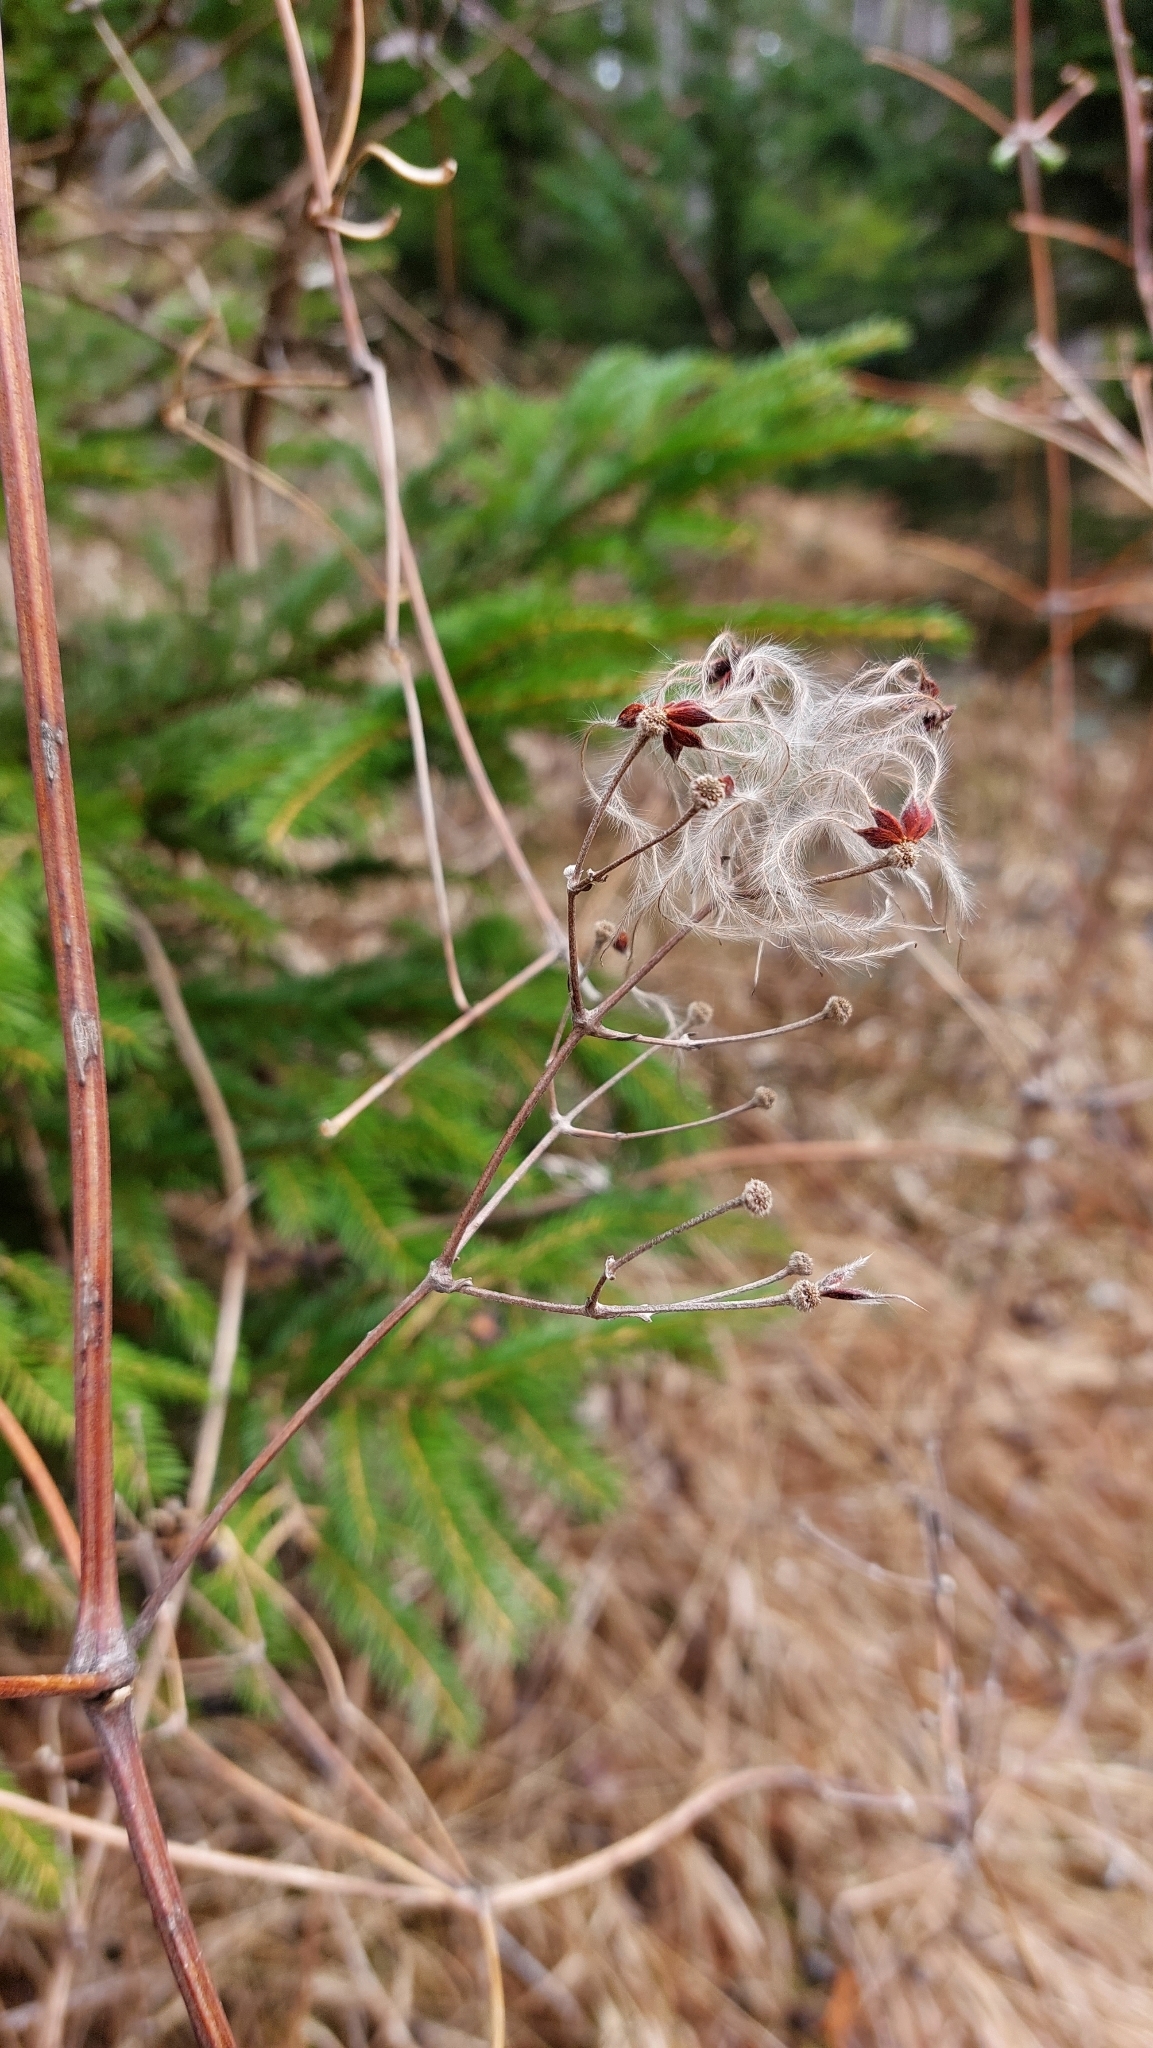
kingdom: Plantae
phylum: Tracheophyta
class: Magnoliopsida
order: Ranunculales
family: Ranunculaceae
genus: Clematis
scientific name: Clematis vitalba
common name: Evergreen clematis
